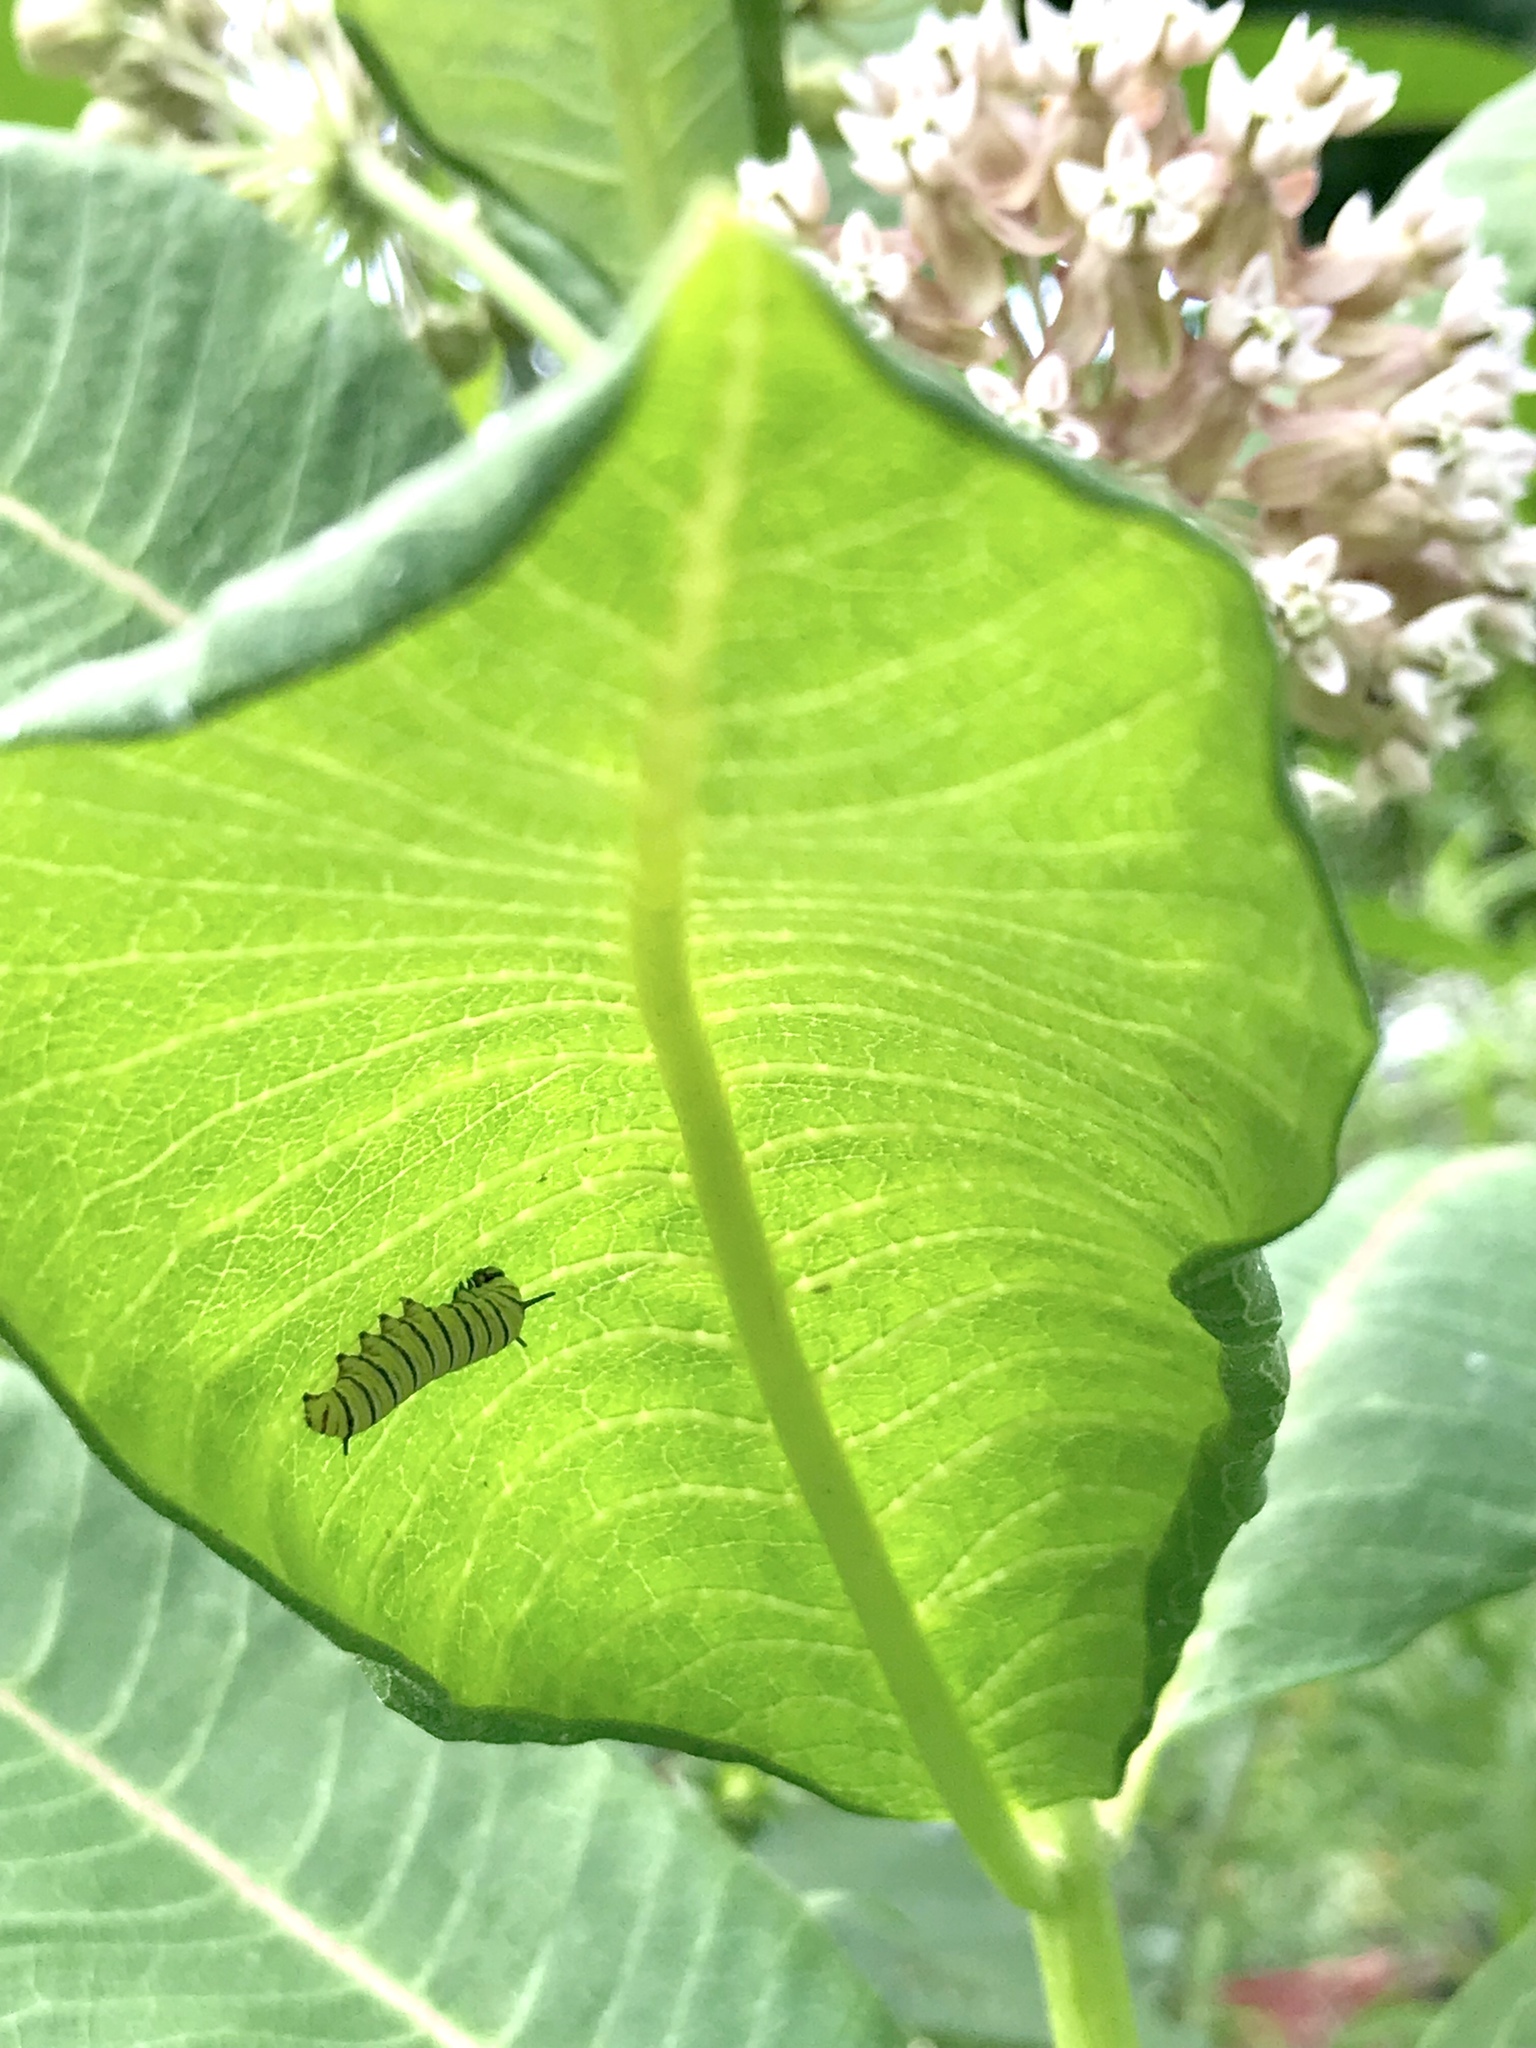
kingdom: Animalia
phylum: Arthropoda
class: Insecta
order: Lepidoptera
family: Nymphalidae
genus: Danaus
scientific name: Danaus plexippus
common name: Monarch
